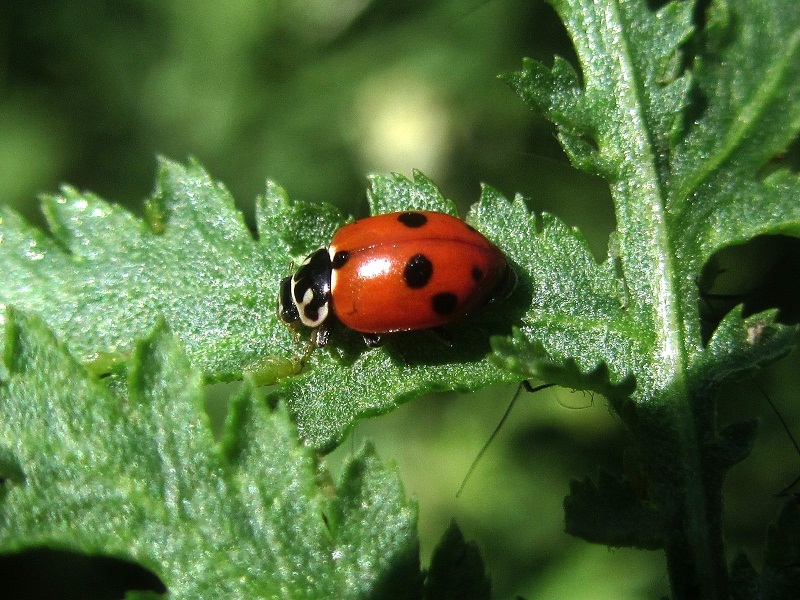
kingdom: Animalia
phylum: Arthropoda
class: Insecta
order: Coleoptera
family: Coccinellidae
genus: Hippodamia
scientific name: Hippodamia variegata
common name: Ladybird beetle
